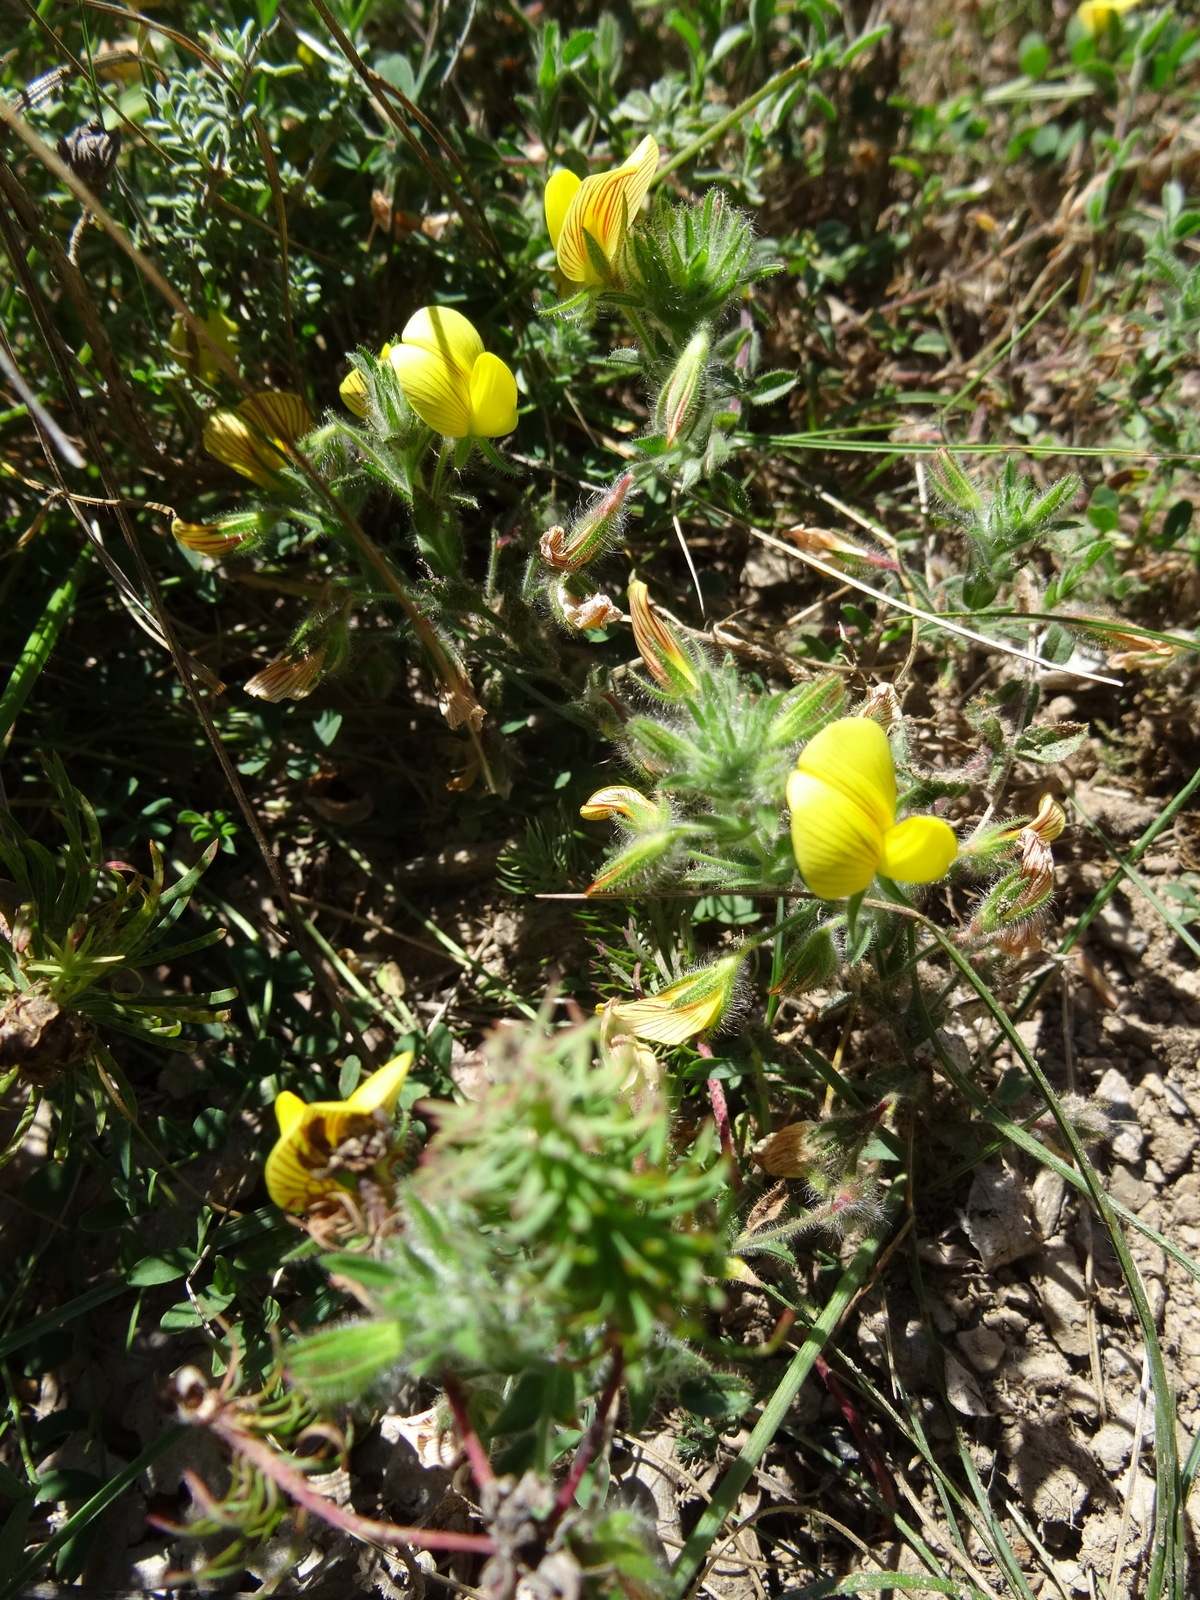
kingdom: Plantae
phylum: Tracheophyta
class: Magnoliopsida
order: Fabales
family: Fabaceae
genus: Ononis
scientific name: Ononis natrix
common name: Yellow restharrow
